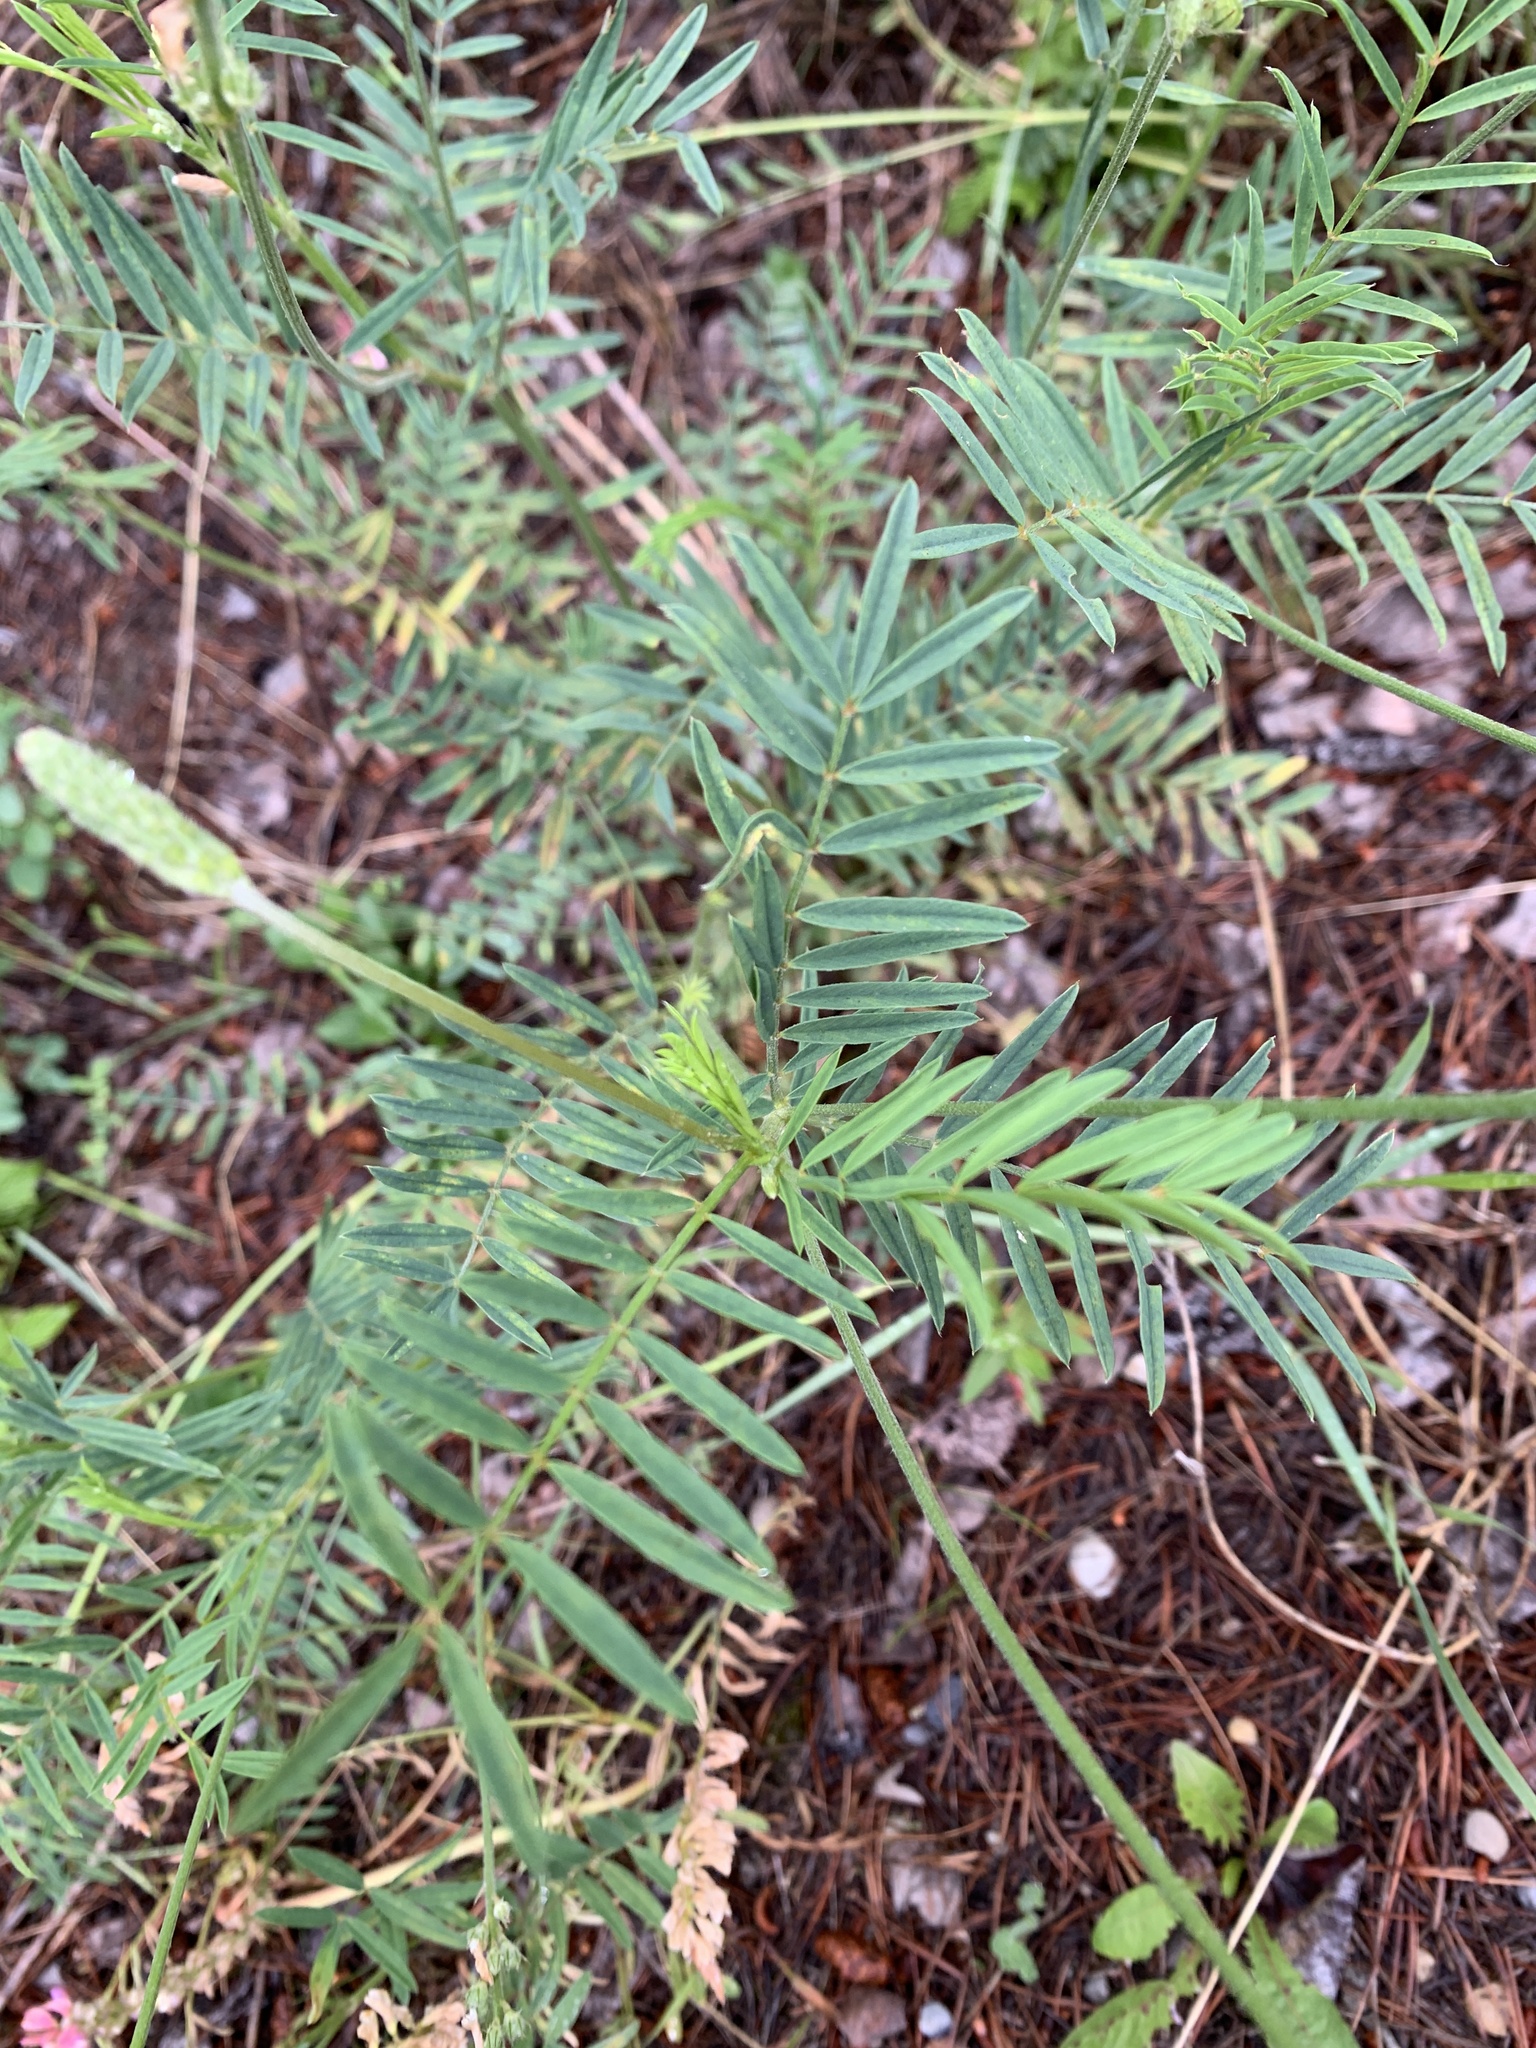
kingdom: Plantae
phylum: Tracheophyta
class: Magnoliopsida
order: Fabales
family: Fabaceae
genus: Onobrychis
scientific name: Onobrychis viciifolia
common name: Sainfoin
